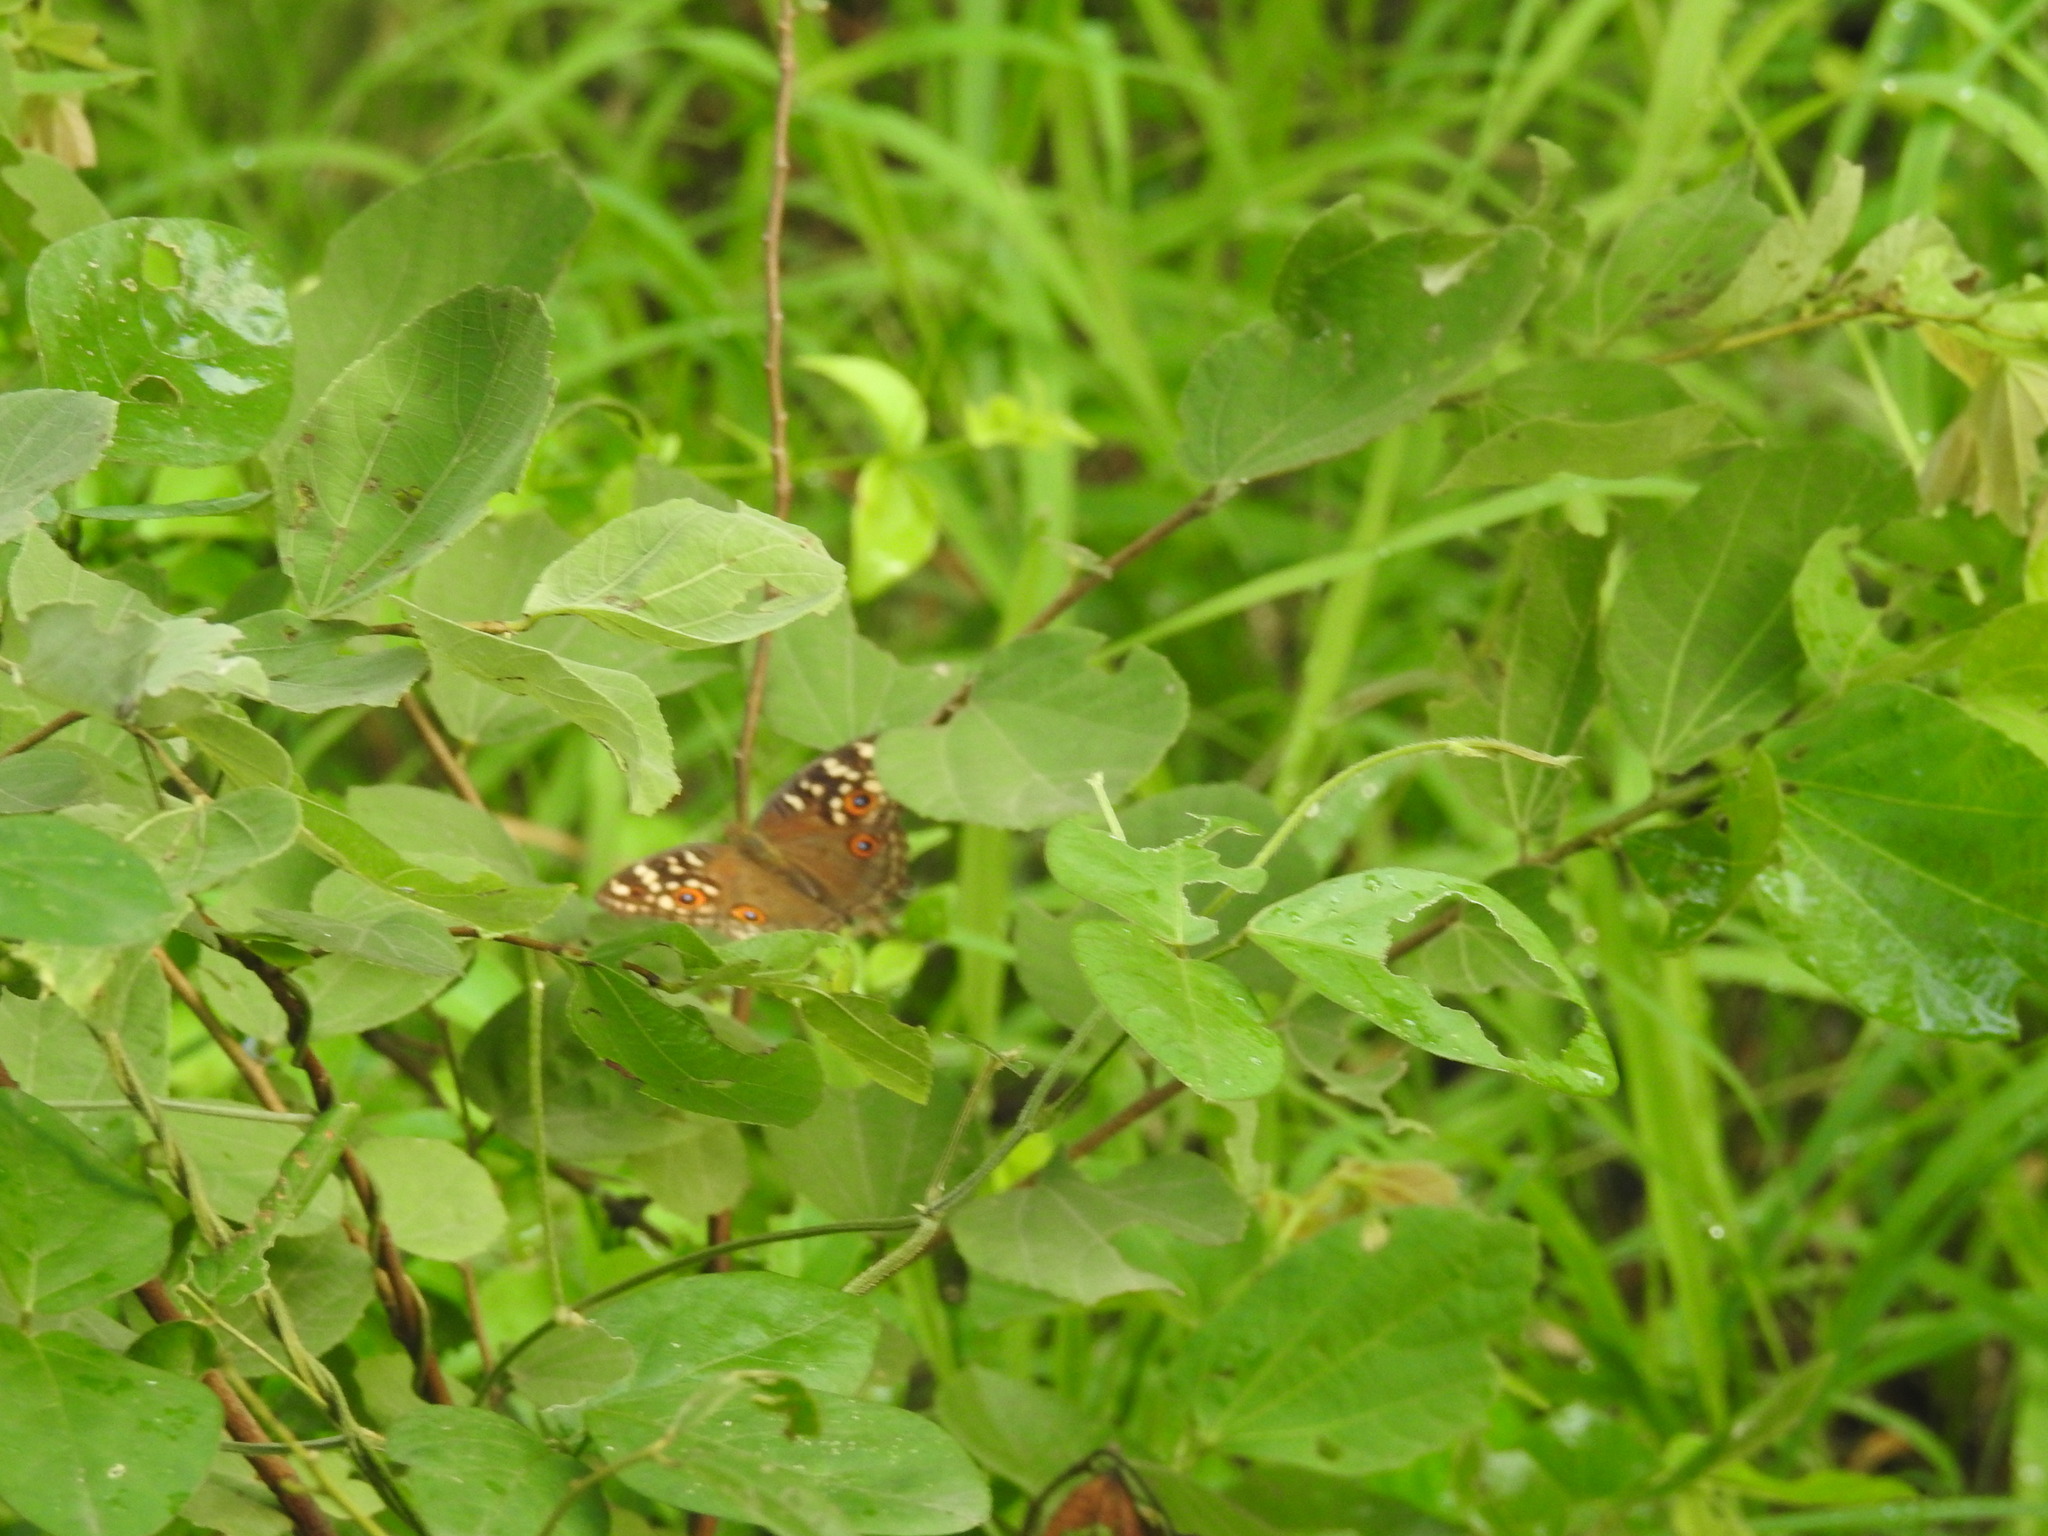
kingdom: Animalia
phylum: Arthropoda
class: Insecta
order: Lepidoptera
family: Nymphalidae
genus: Junonia
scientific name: Junonia lemonias
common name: Lemon pansy
